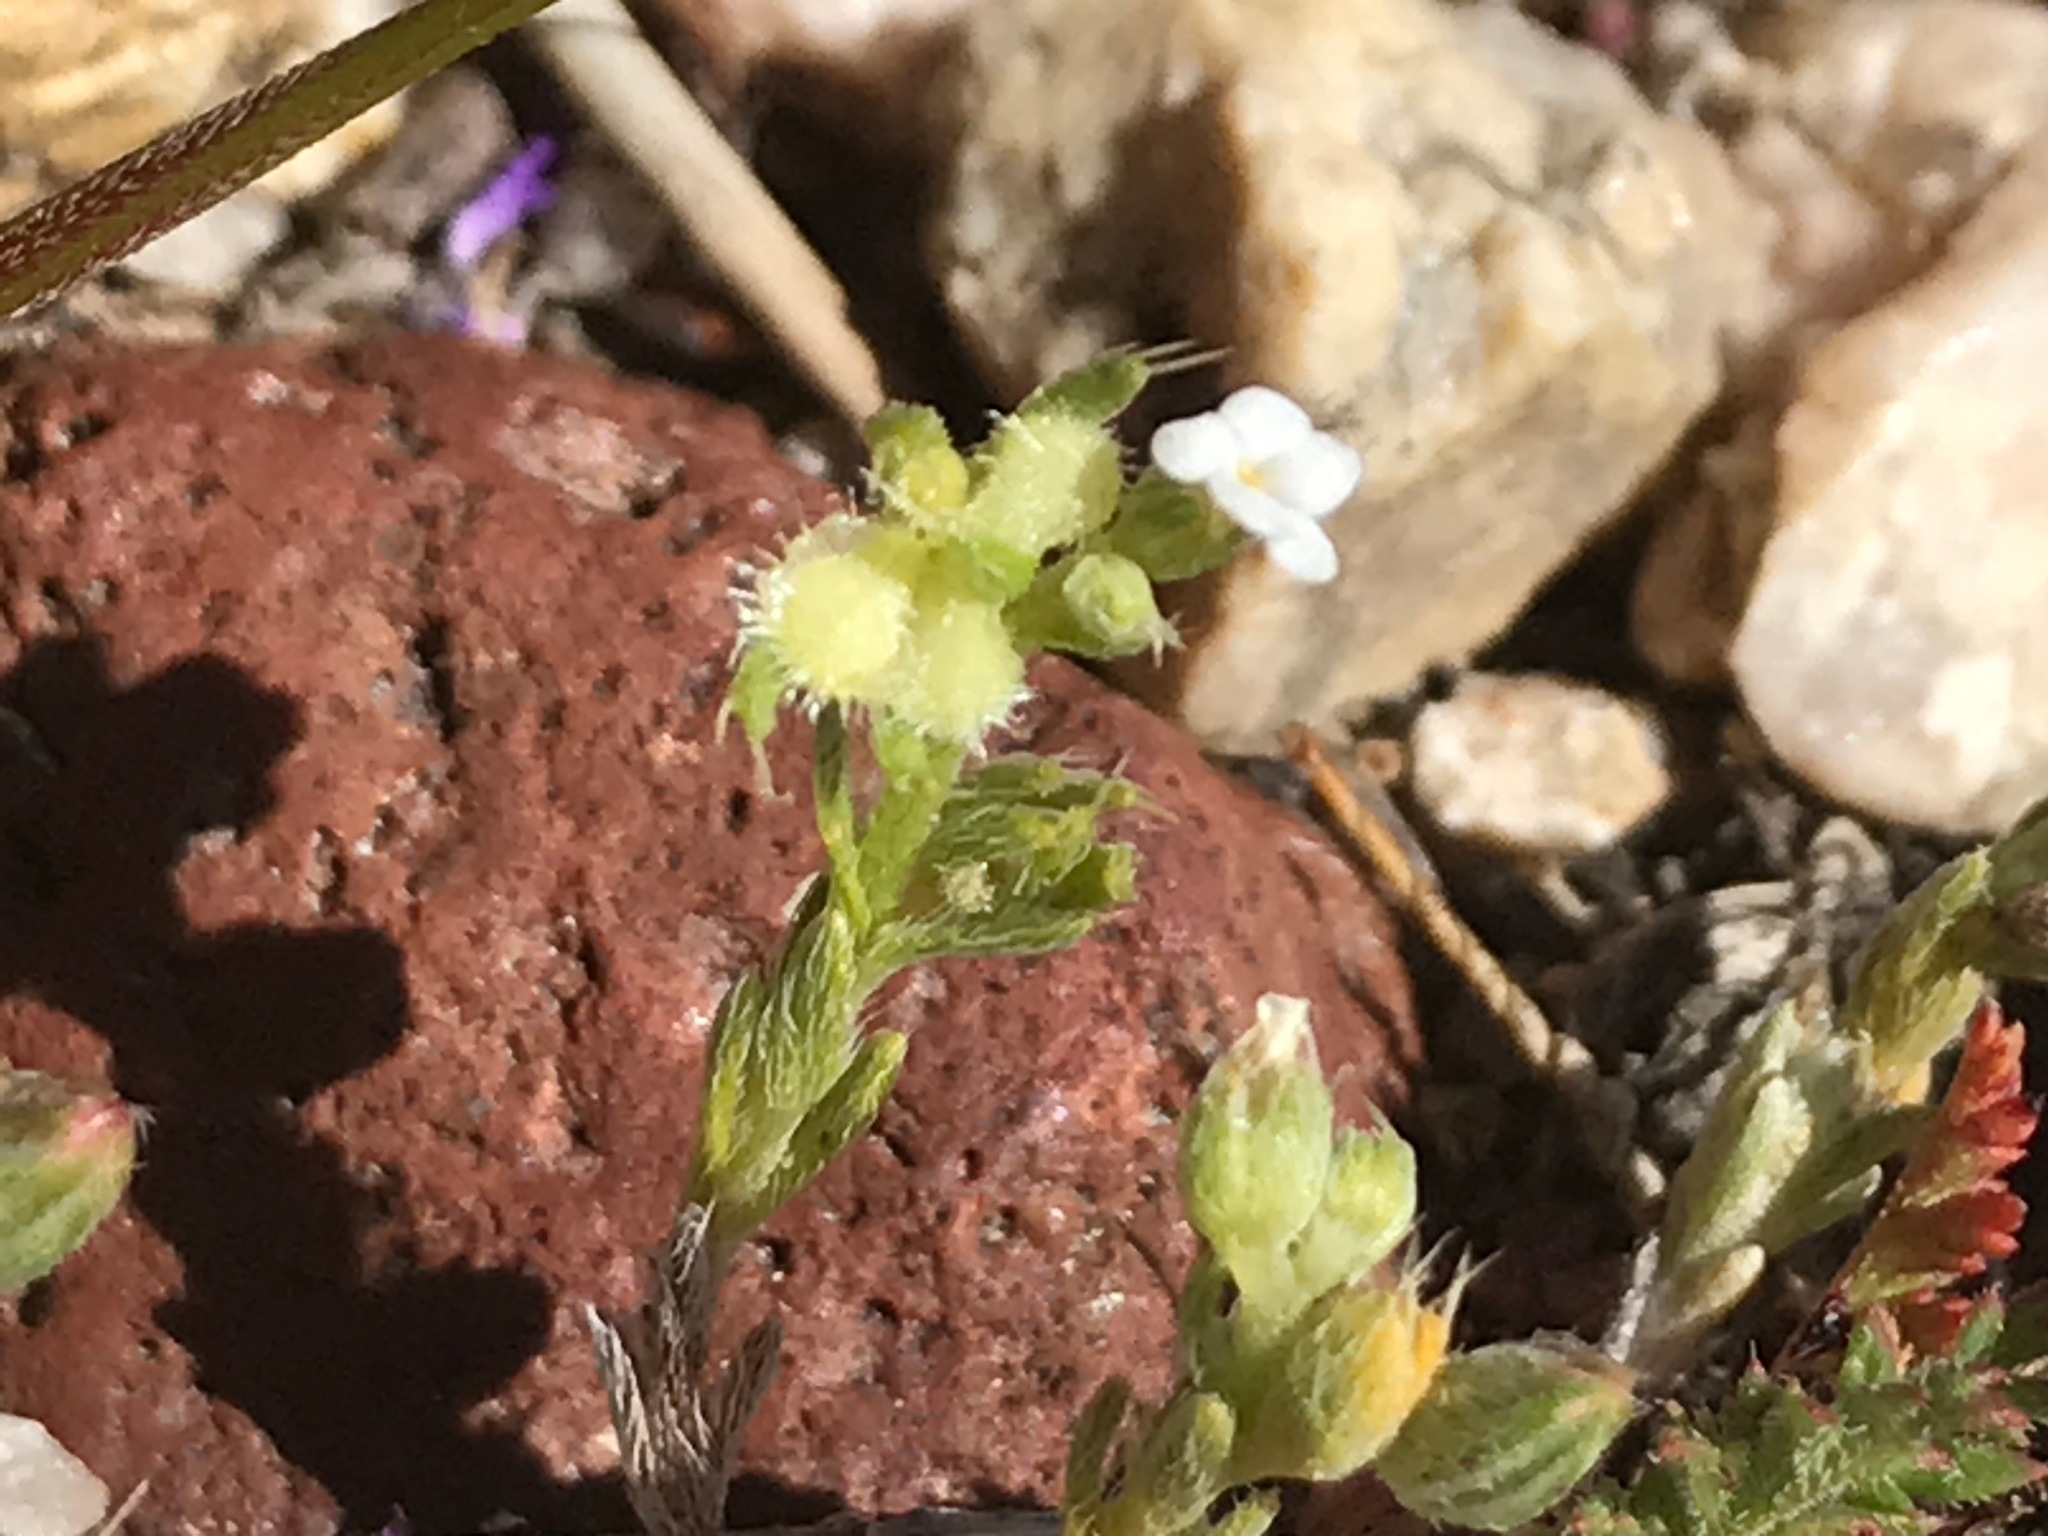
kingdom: Plantae
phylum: Tracheophyta
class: Magnoliopsida
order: Boraginales
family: Boraginaceae
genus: Pectocarya
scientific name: Pectocarya setosa
